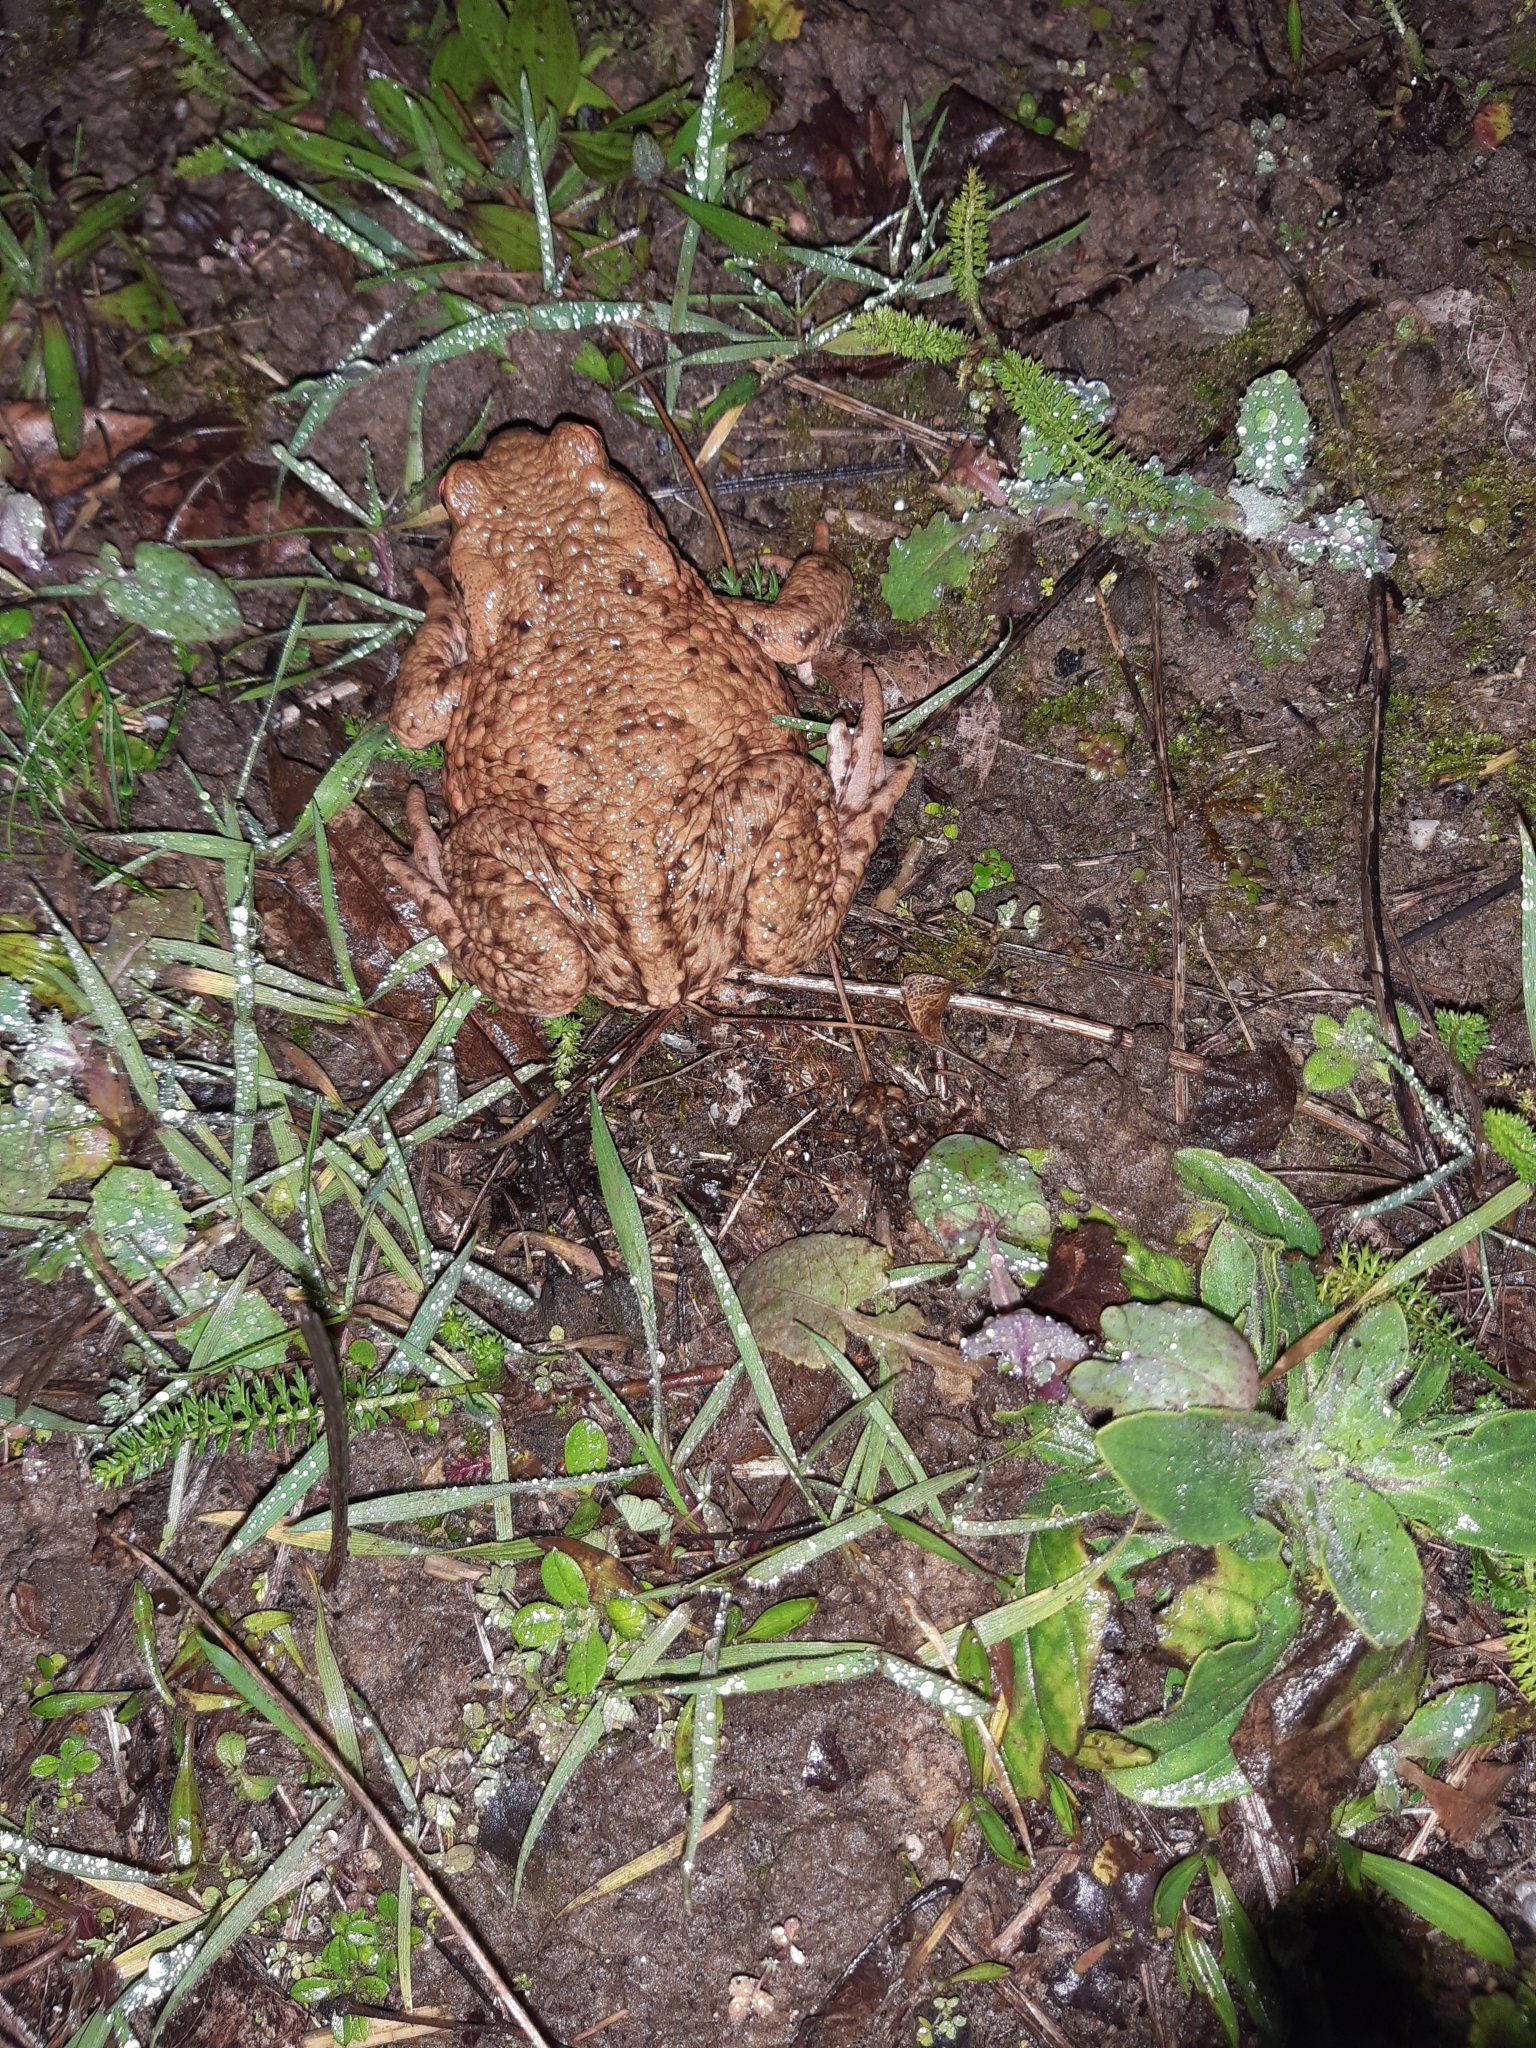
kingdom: Animalia
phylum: Chordata
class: Amphibia
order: Anura
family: Bufonidae
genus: Bufo
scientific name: Bufo bufo
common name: Common toad
